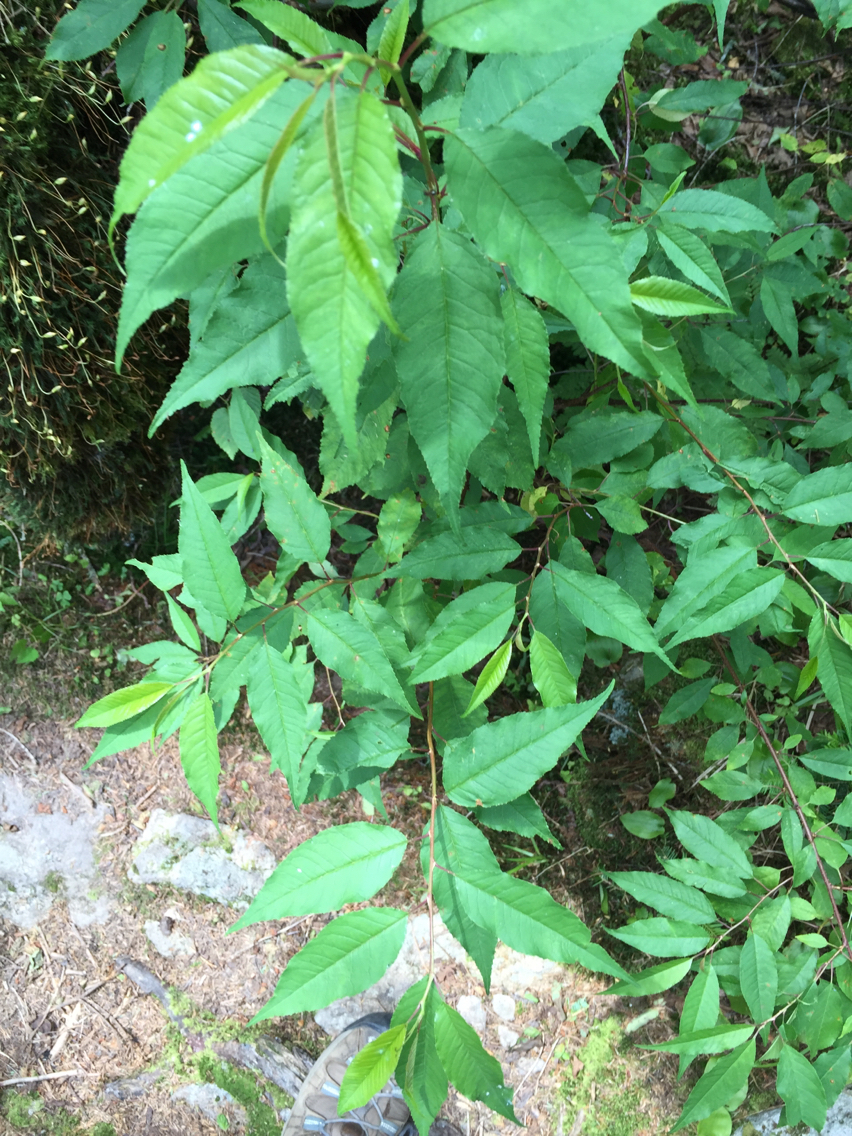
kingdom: Plantae
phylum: Tracheophyta
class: Magnoliopsida
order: Rosales
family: Rosaceae
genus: Prunus
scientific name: Prunus pensylvanica
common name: Pin cherry
